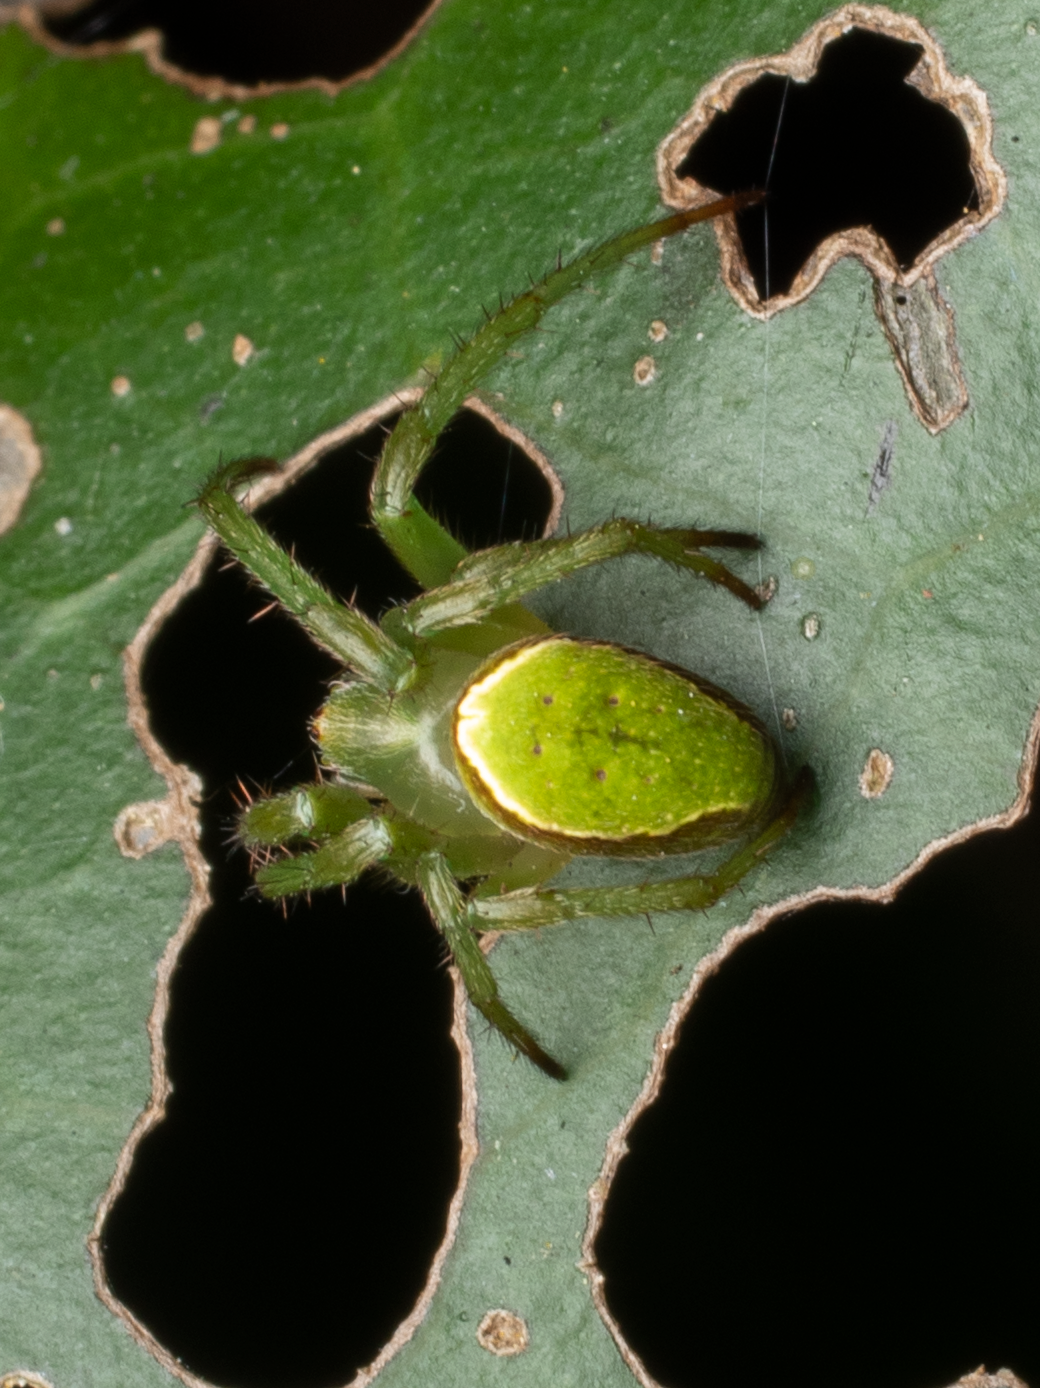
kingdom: Animalia
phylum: Arthropoda
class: Arachnida
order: Araneae
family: Araneidae
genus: Colaranea
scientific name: Colaranea viriditas
